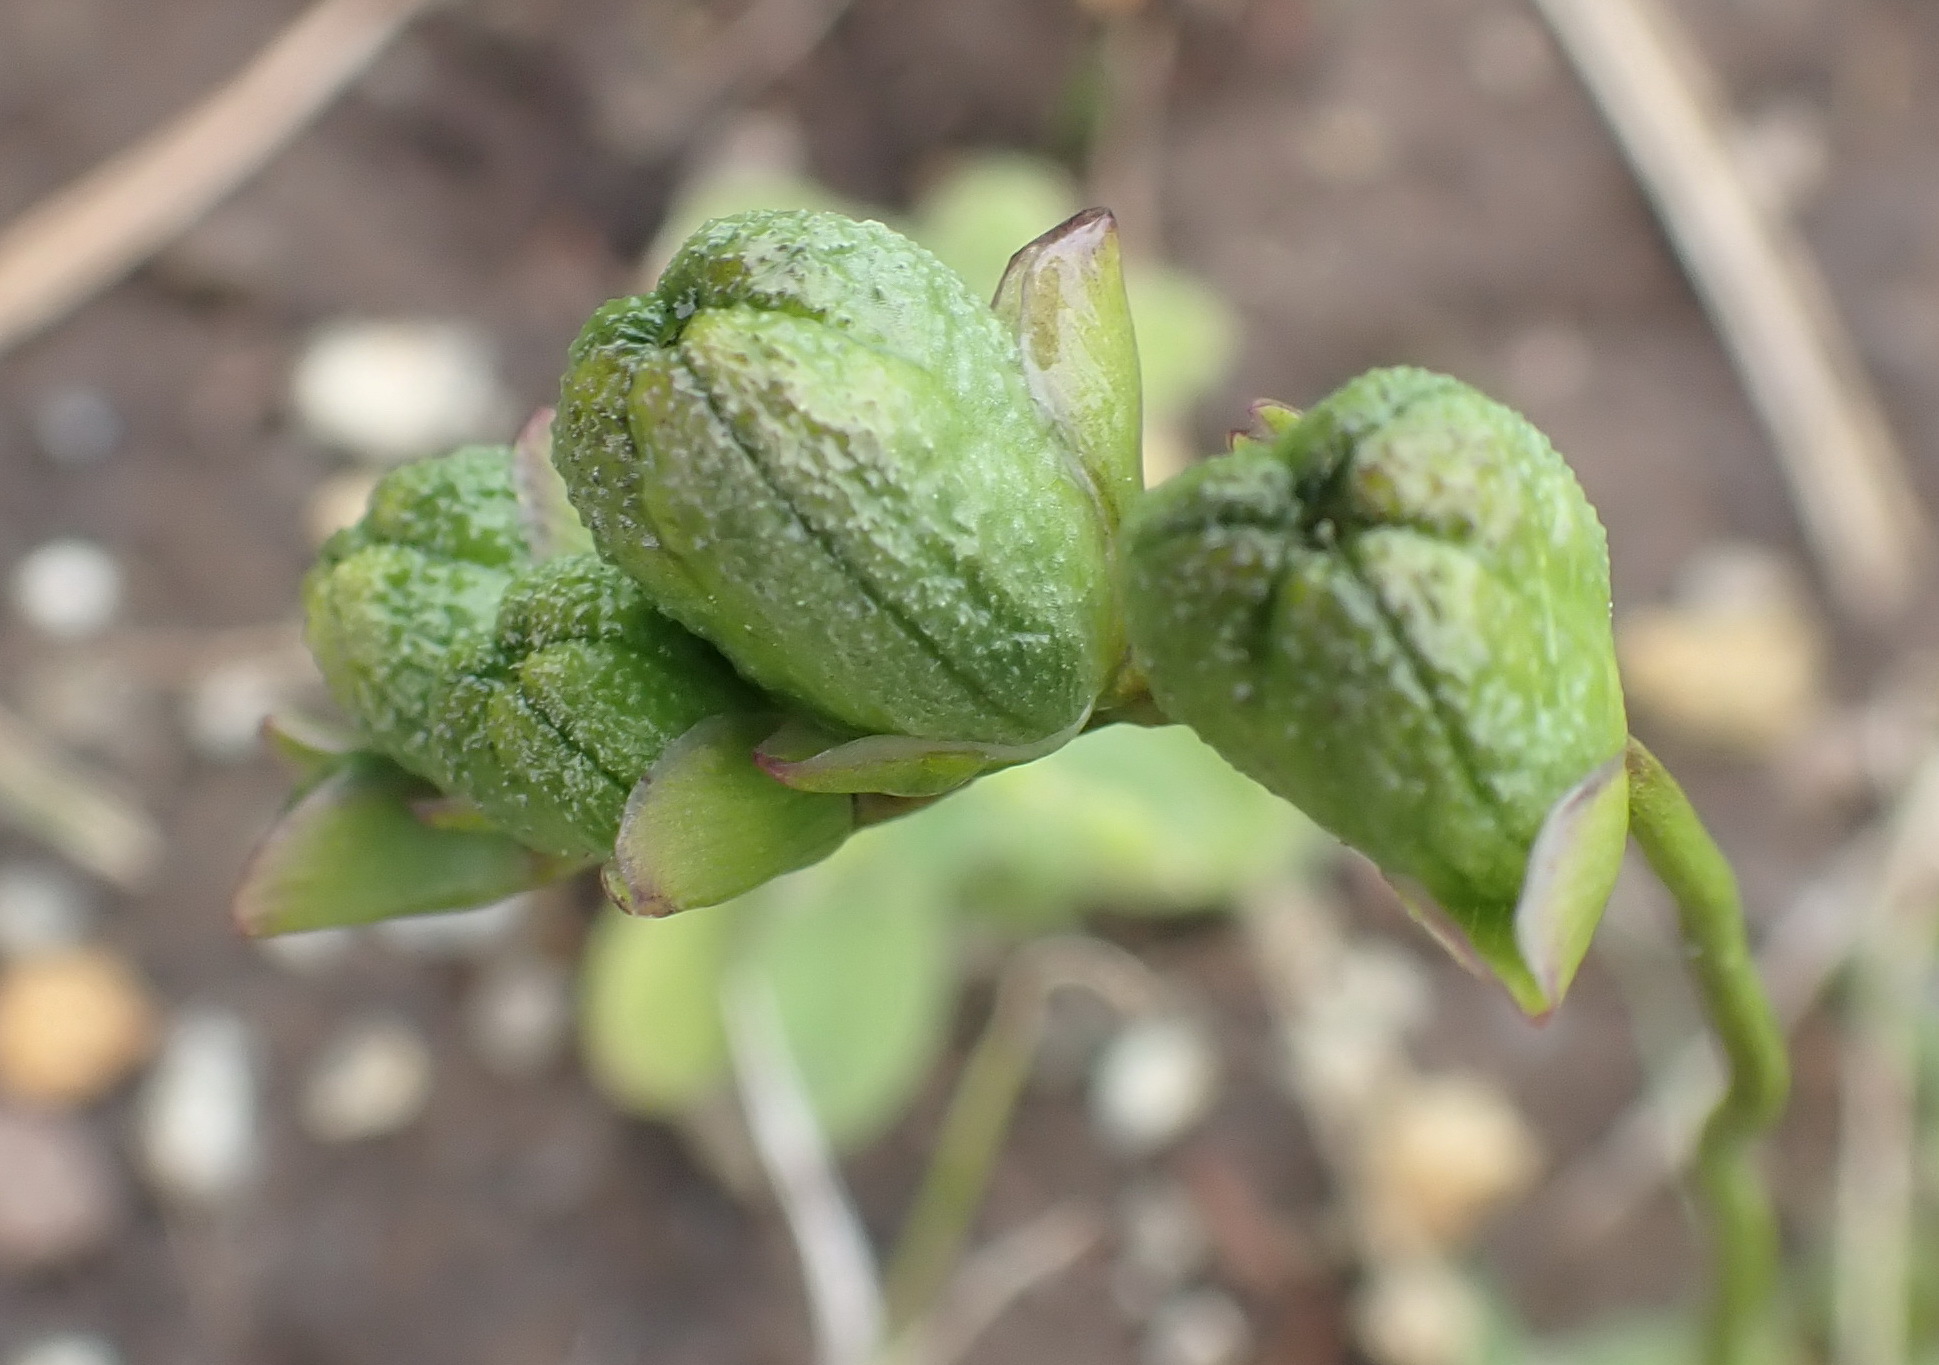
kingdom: Plantae
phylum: Tracheophyta
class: Liliopsida
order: Asparagales
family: Iridaceae
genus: Freesia
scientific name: Freesia leichtlinii
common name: Freesia
